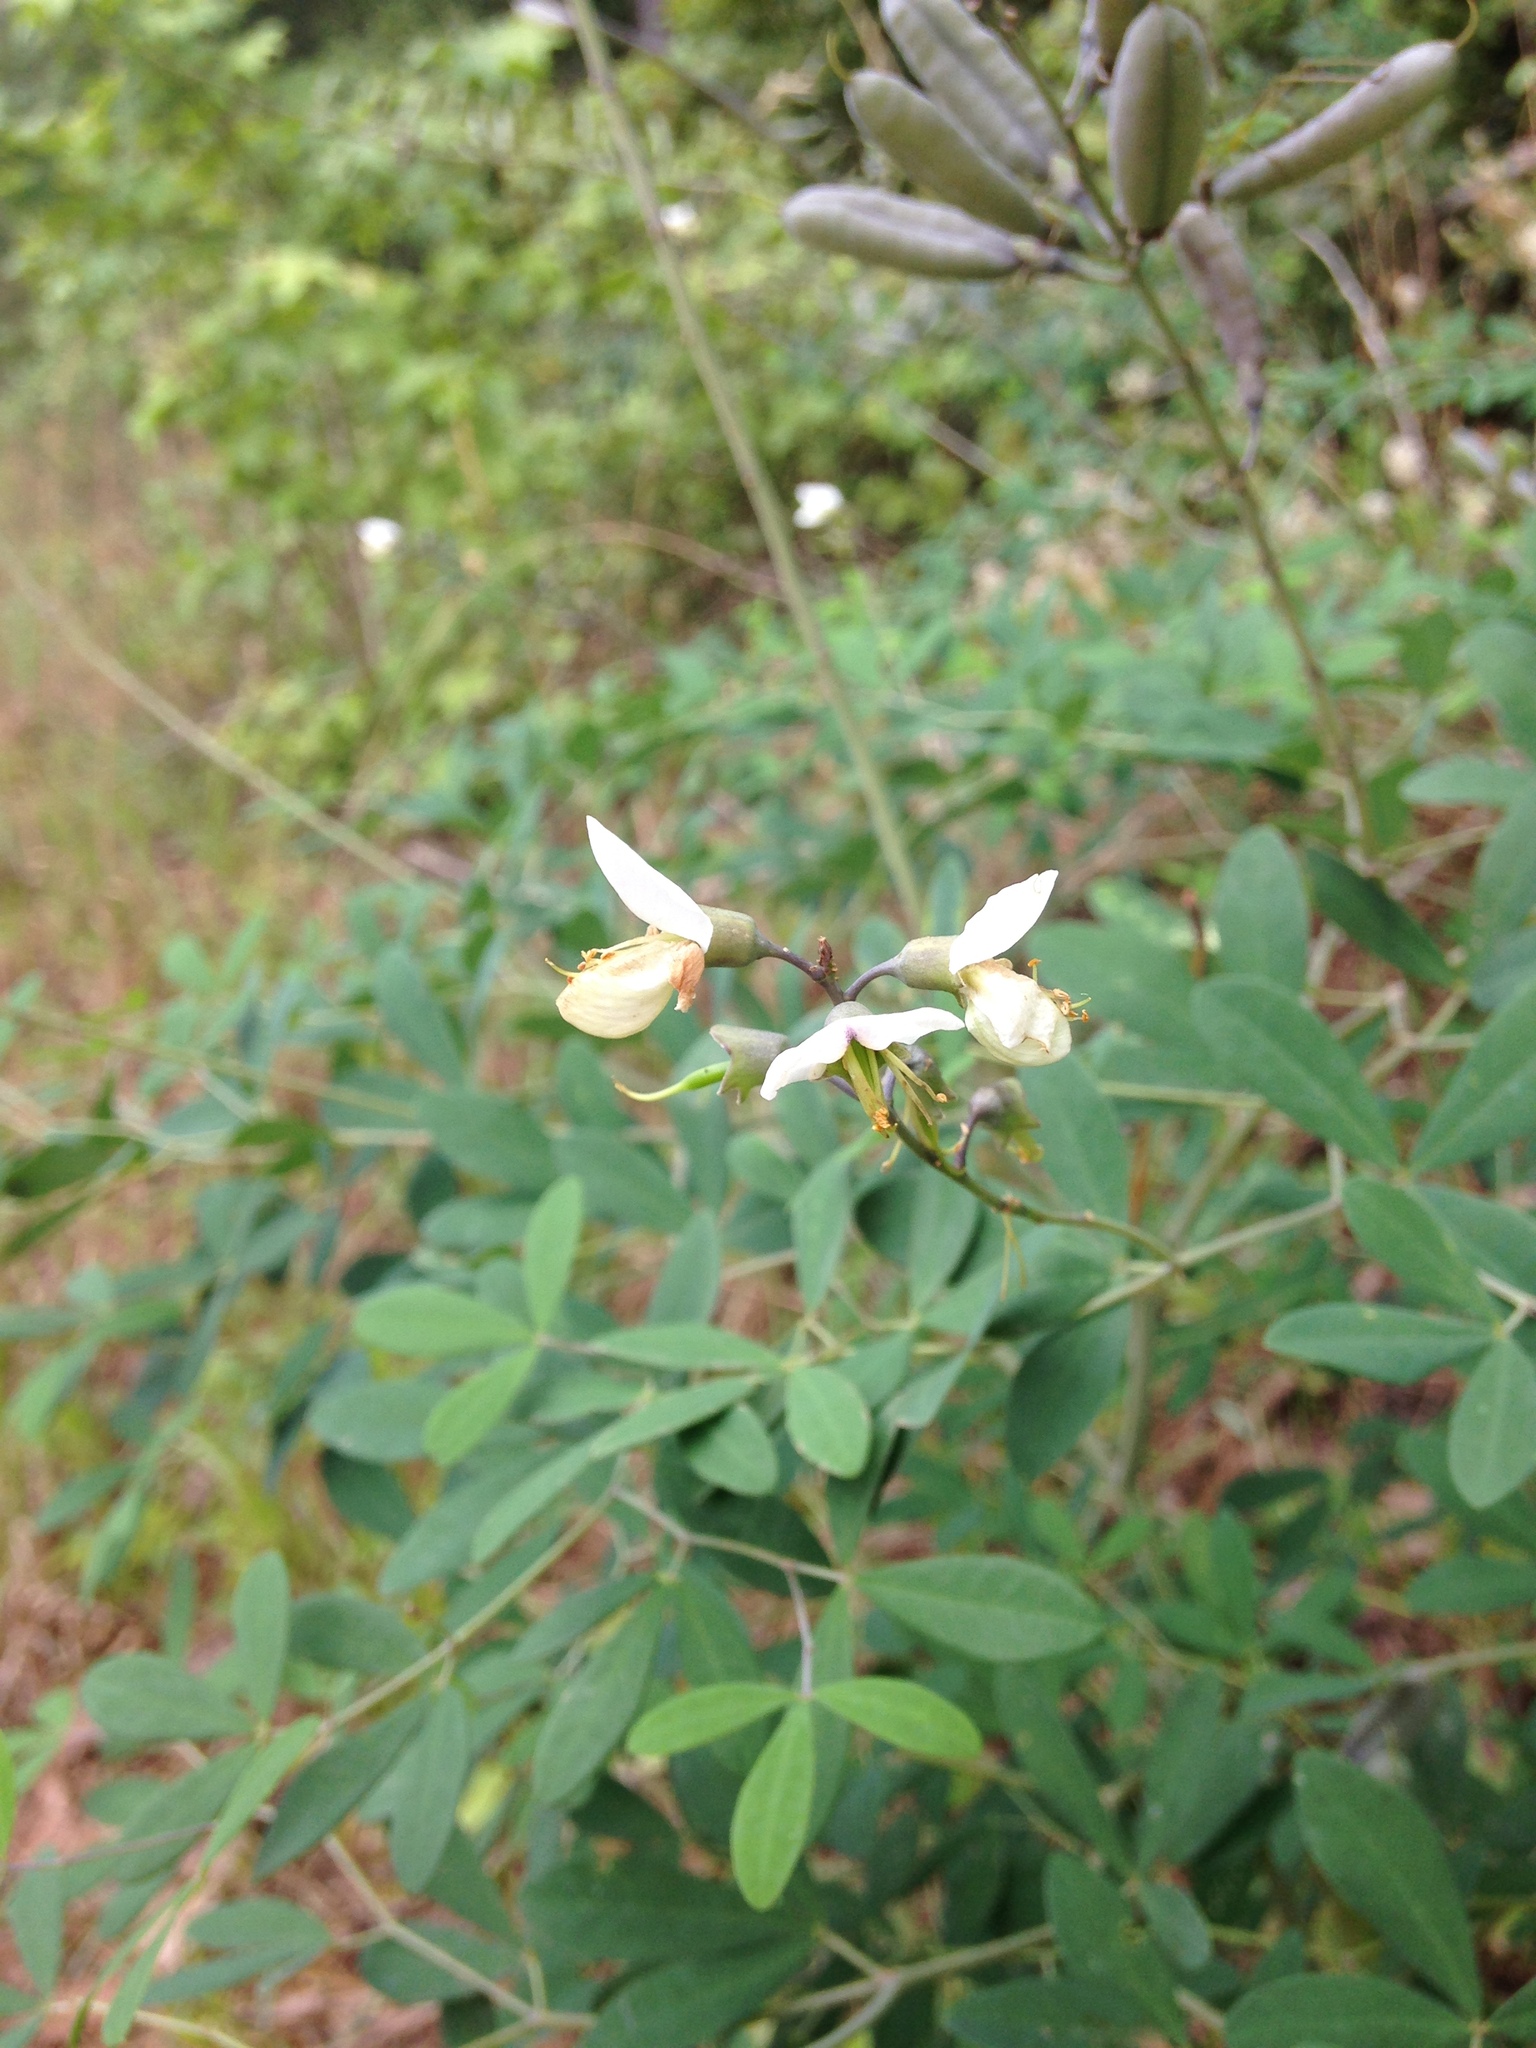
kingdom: Plantae
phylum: Tracheophyta
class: Magnoliopsida
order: Fabales
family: Fabaceae
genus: Baptisia
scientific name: Baptisia albescens
